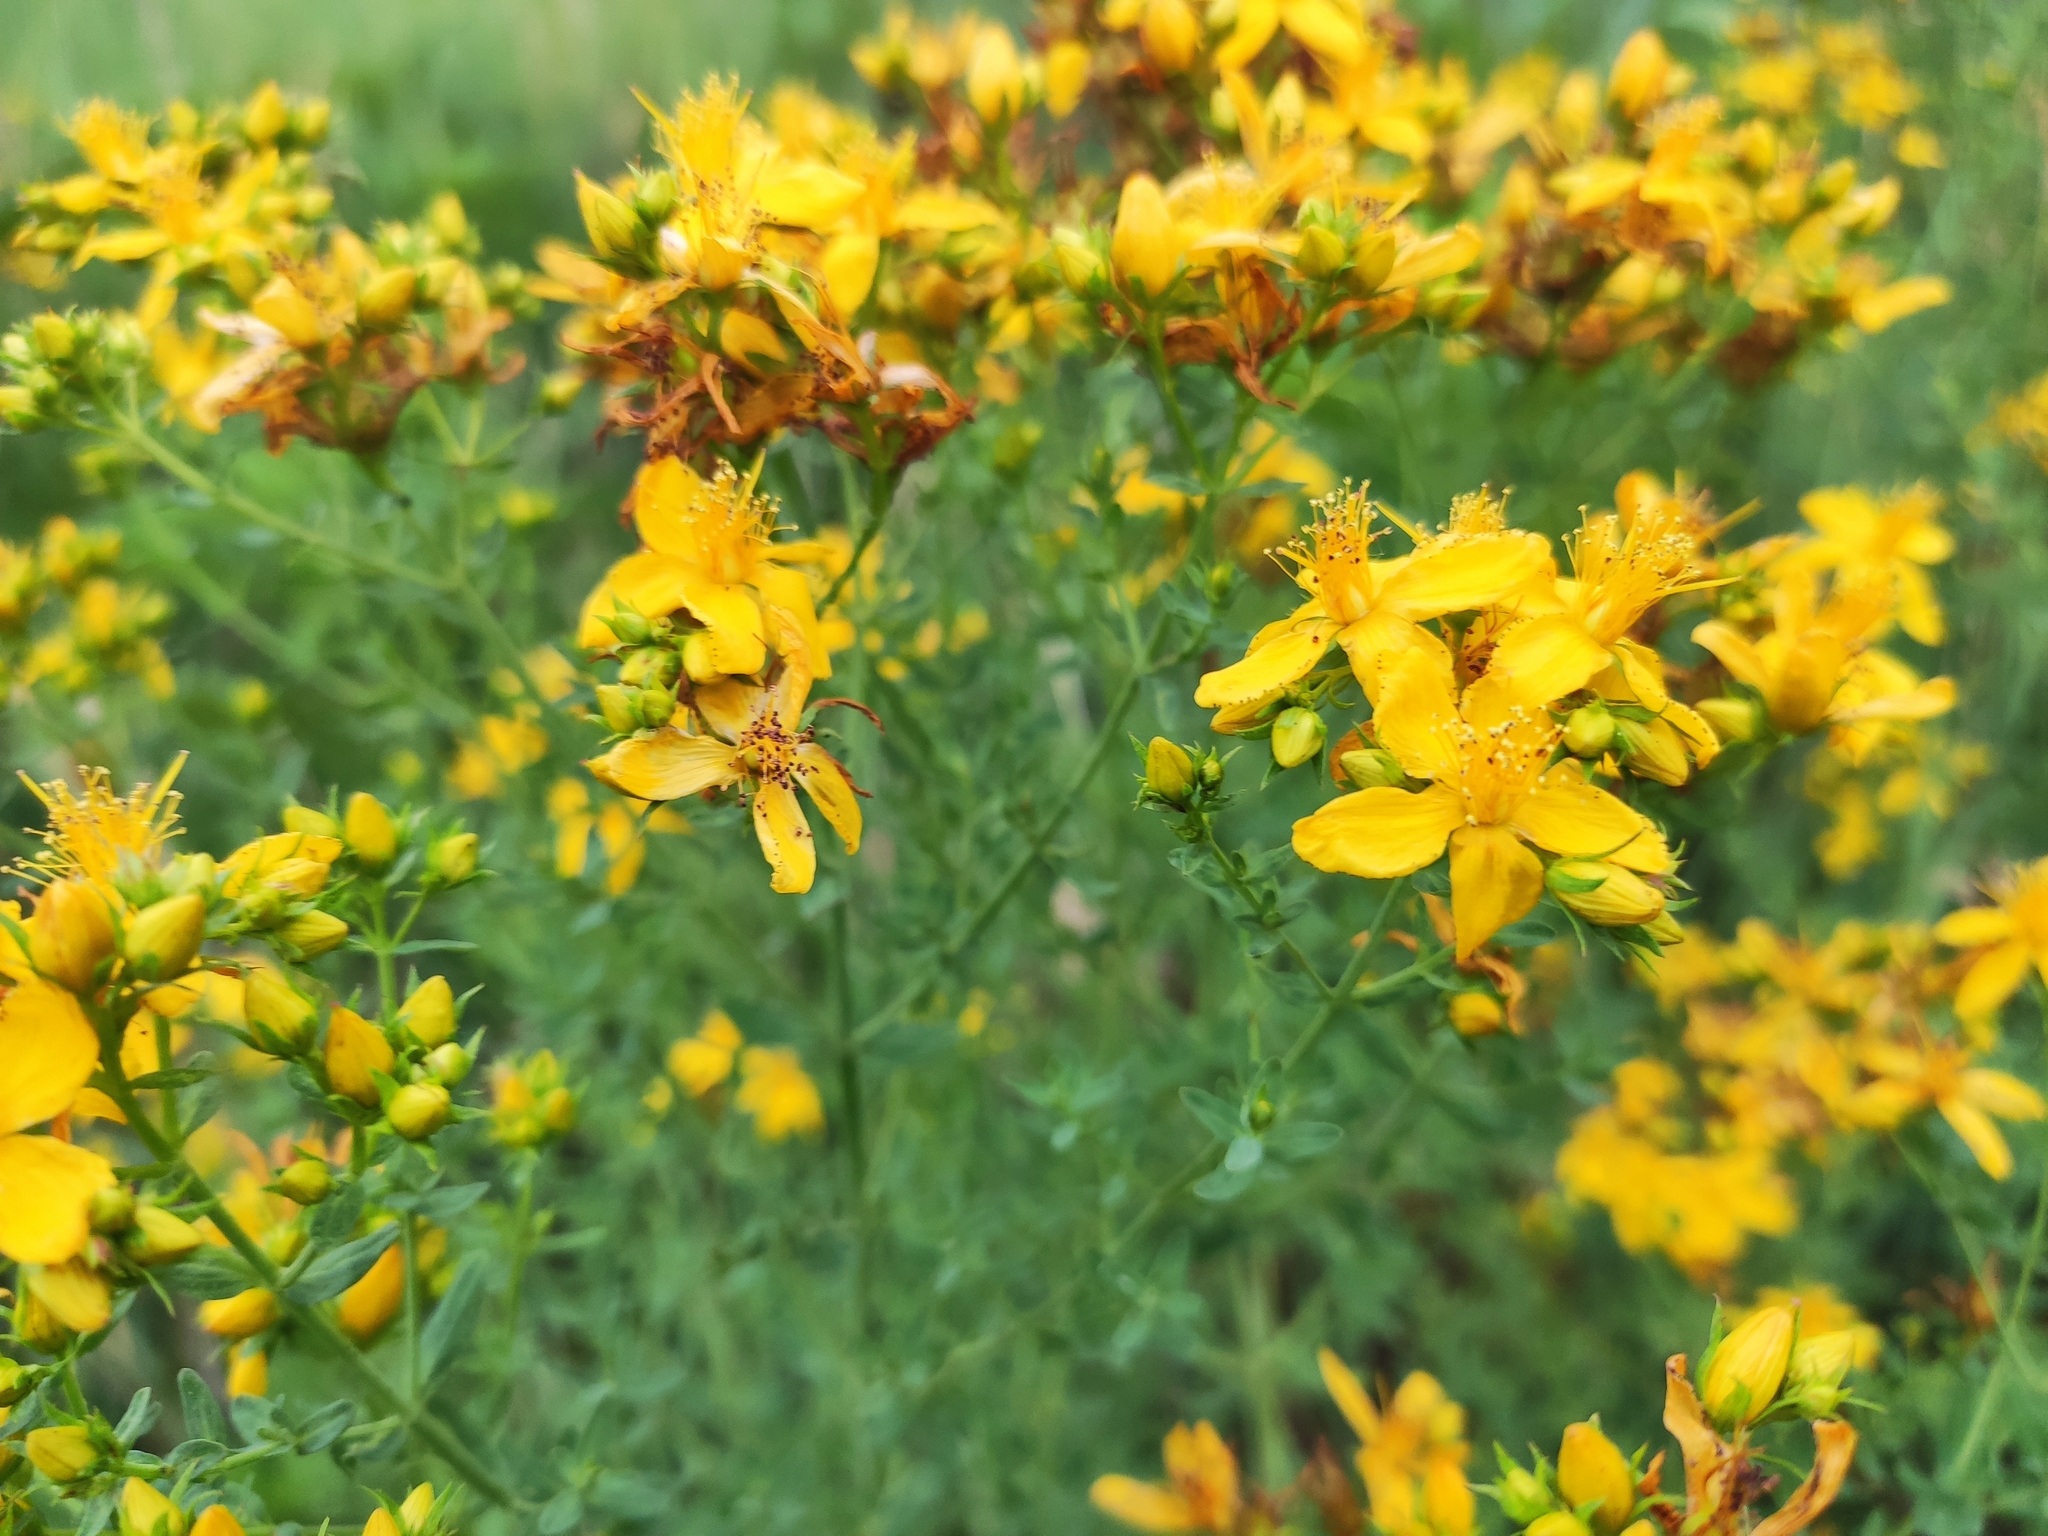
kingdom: Plantae
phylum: Tracheophyta
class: Magnoliopsida
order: Malpighiales
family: Hypericaceae
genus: Hypericum
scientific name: Hypericum perforatum
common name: Common st. johnswort
